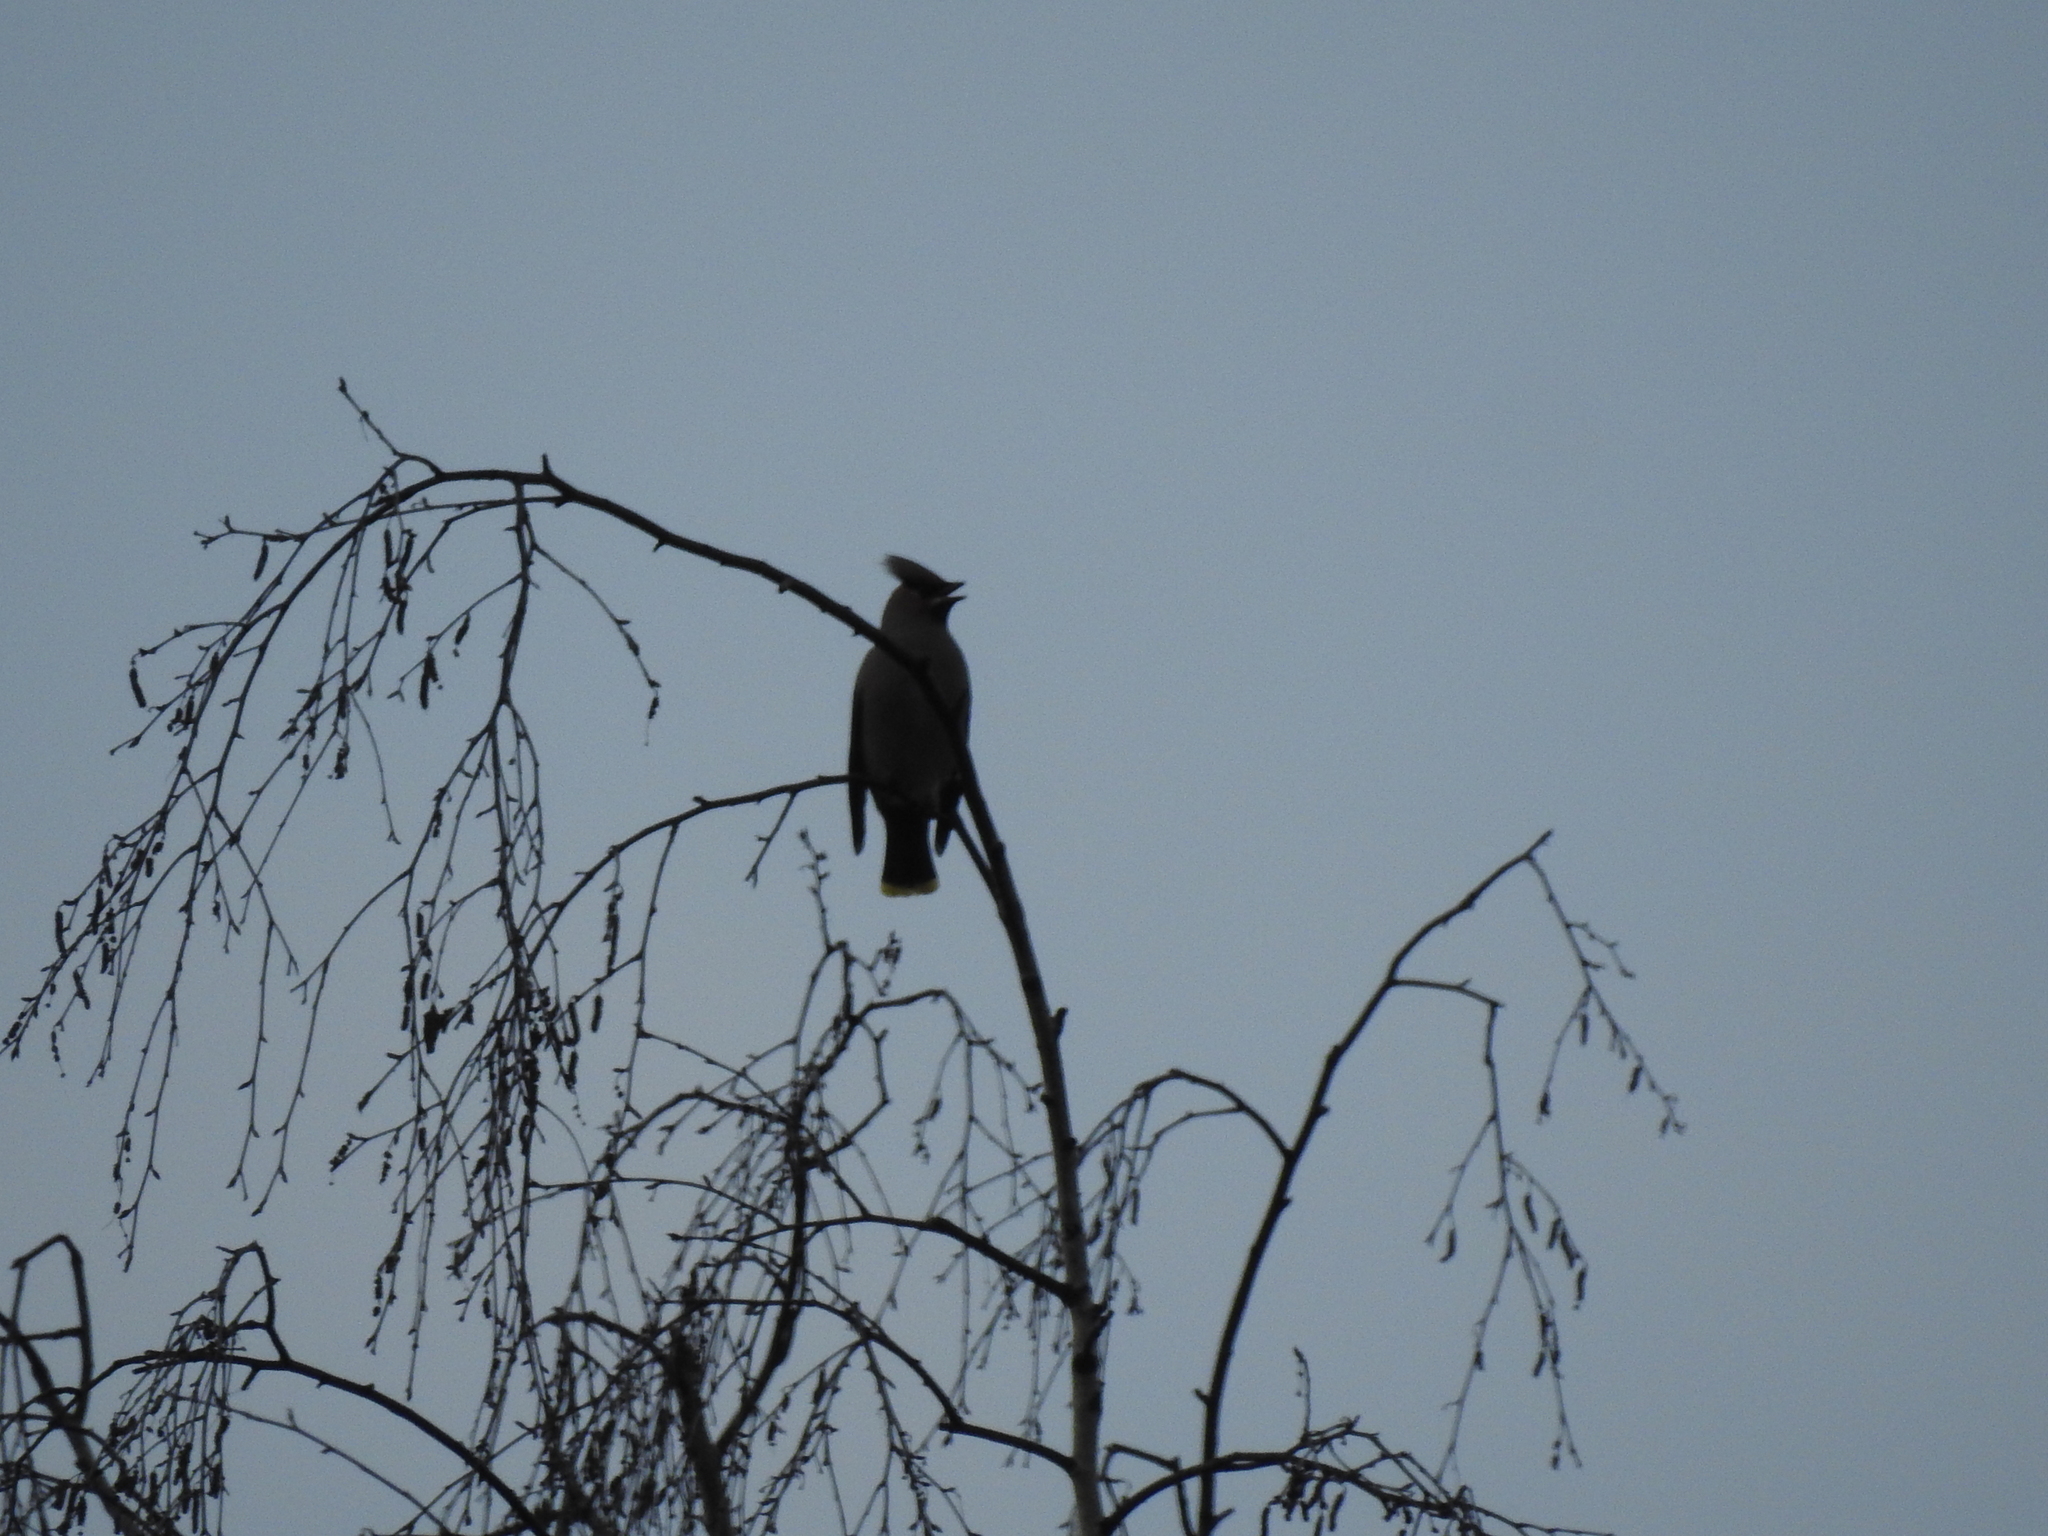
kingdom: Animalia
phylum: Chordata
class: Aves
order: Passeriformes
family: Bombycillidae
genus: Bombycilla
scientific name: Bombycilla garrulus
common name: Bohemian waxwing
